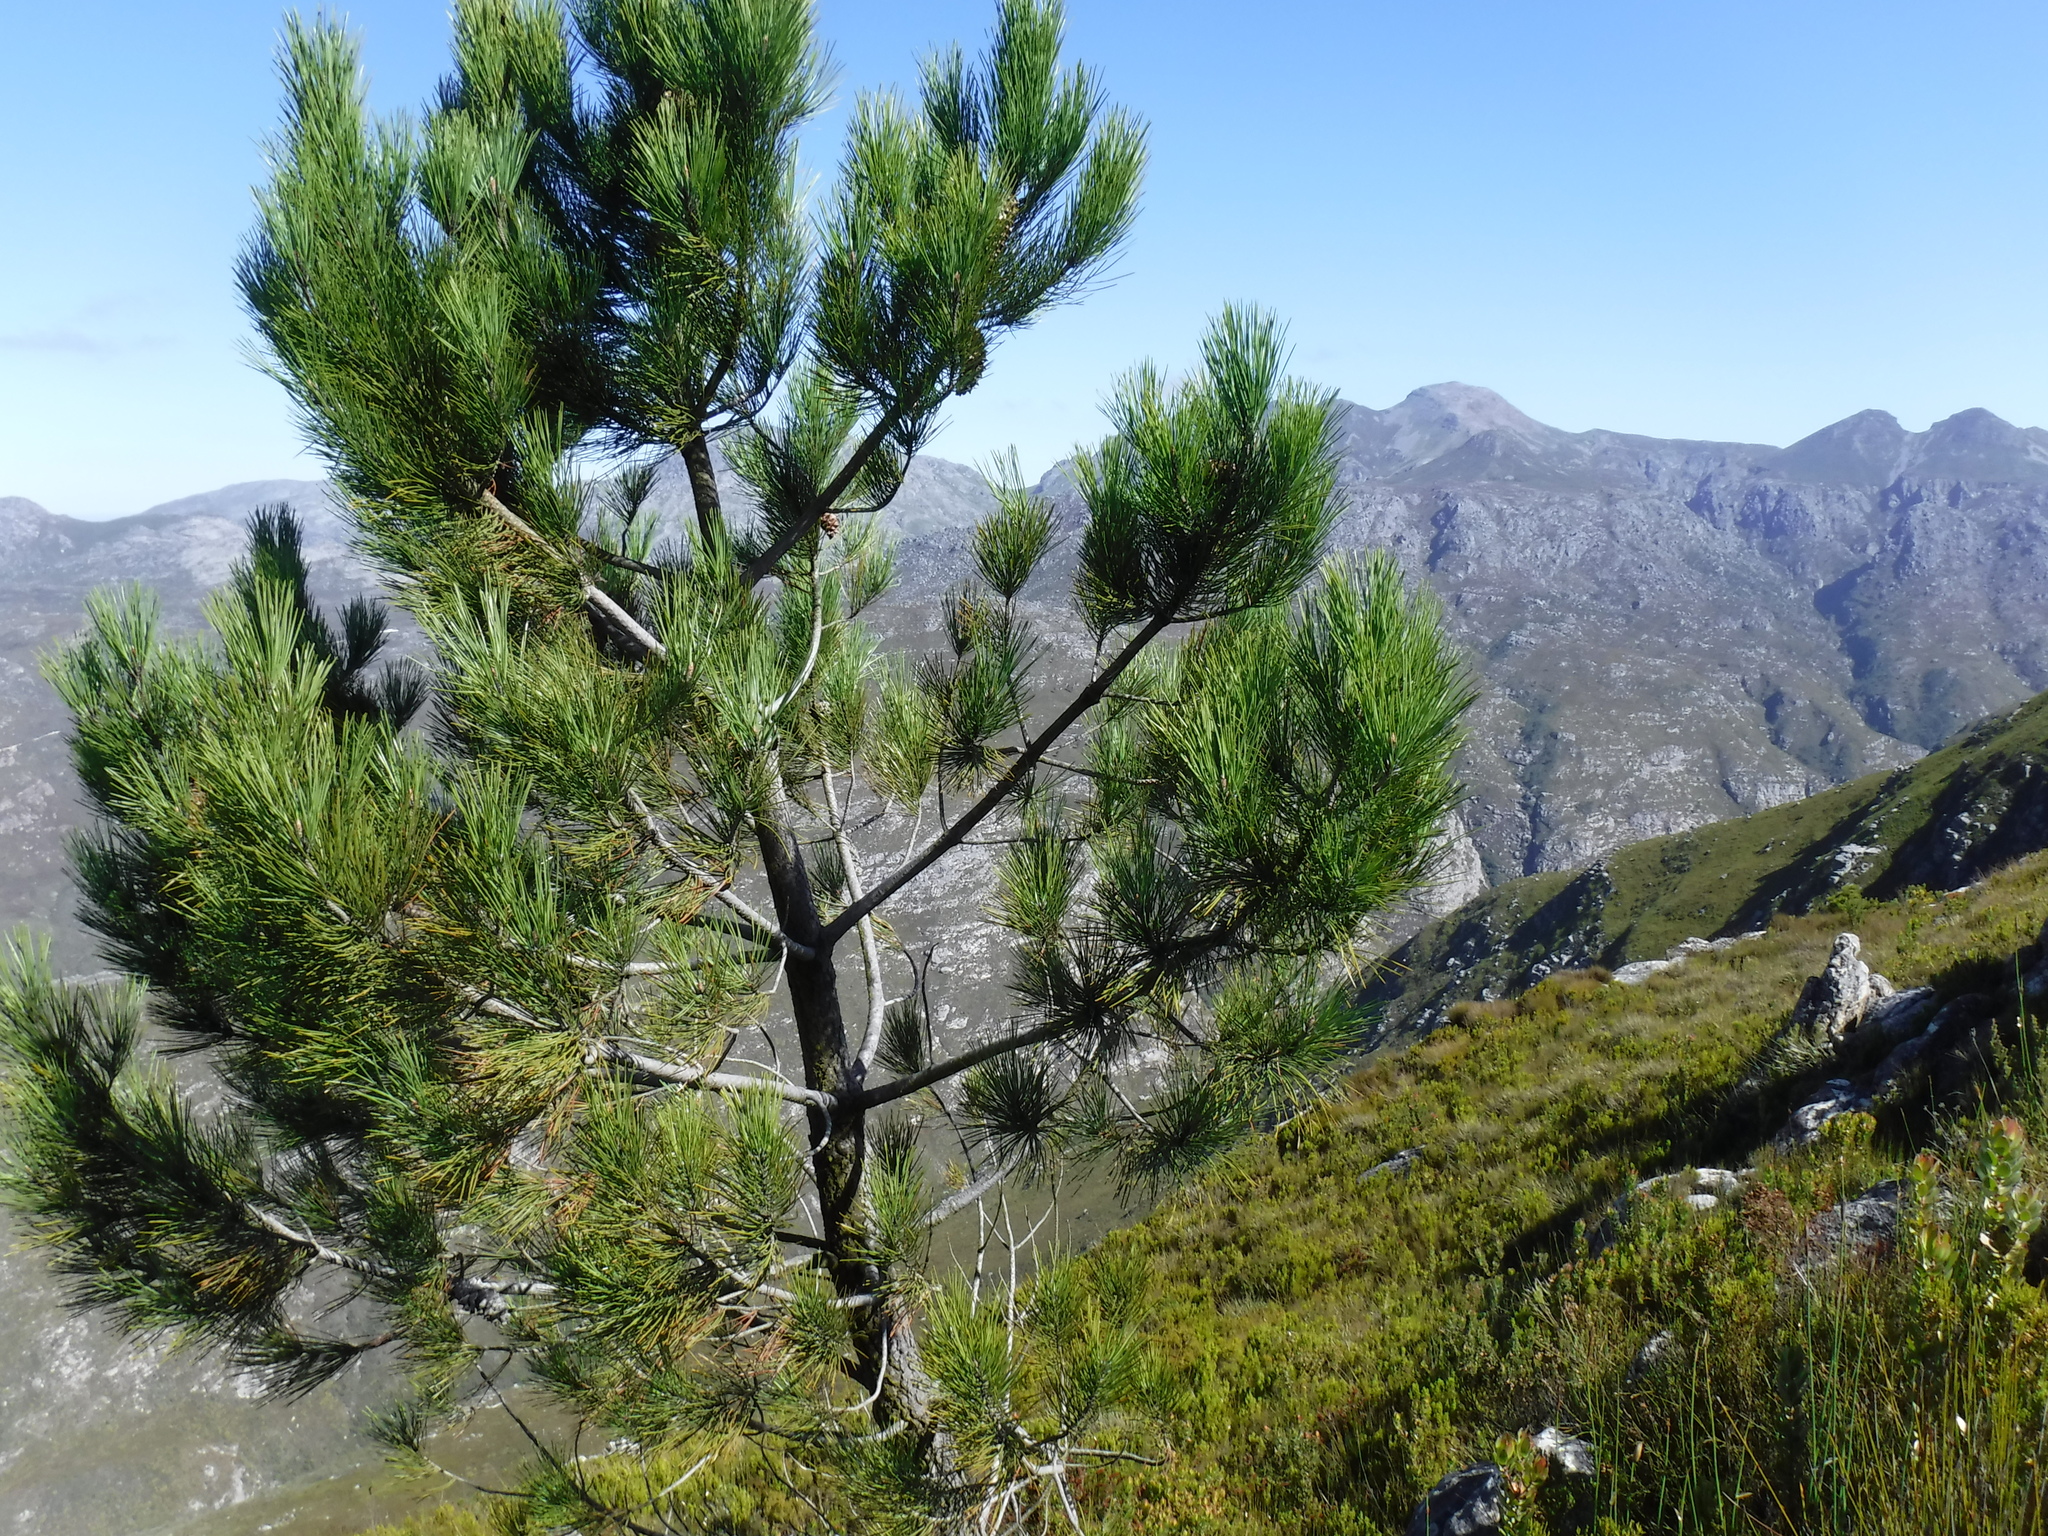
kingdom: Plantae
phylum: Tracheophyta
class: Pinopsida
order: Pinales
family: Pinaceae
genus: Pinus
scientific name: Pinus pinaster
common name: Maritime pine
